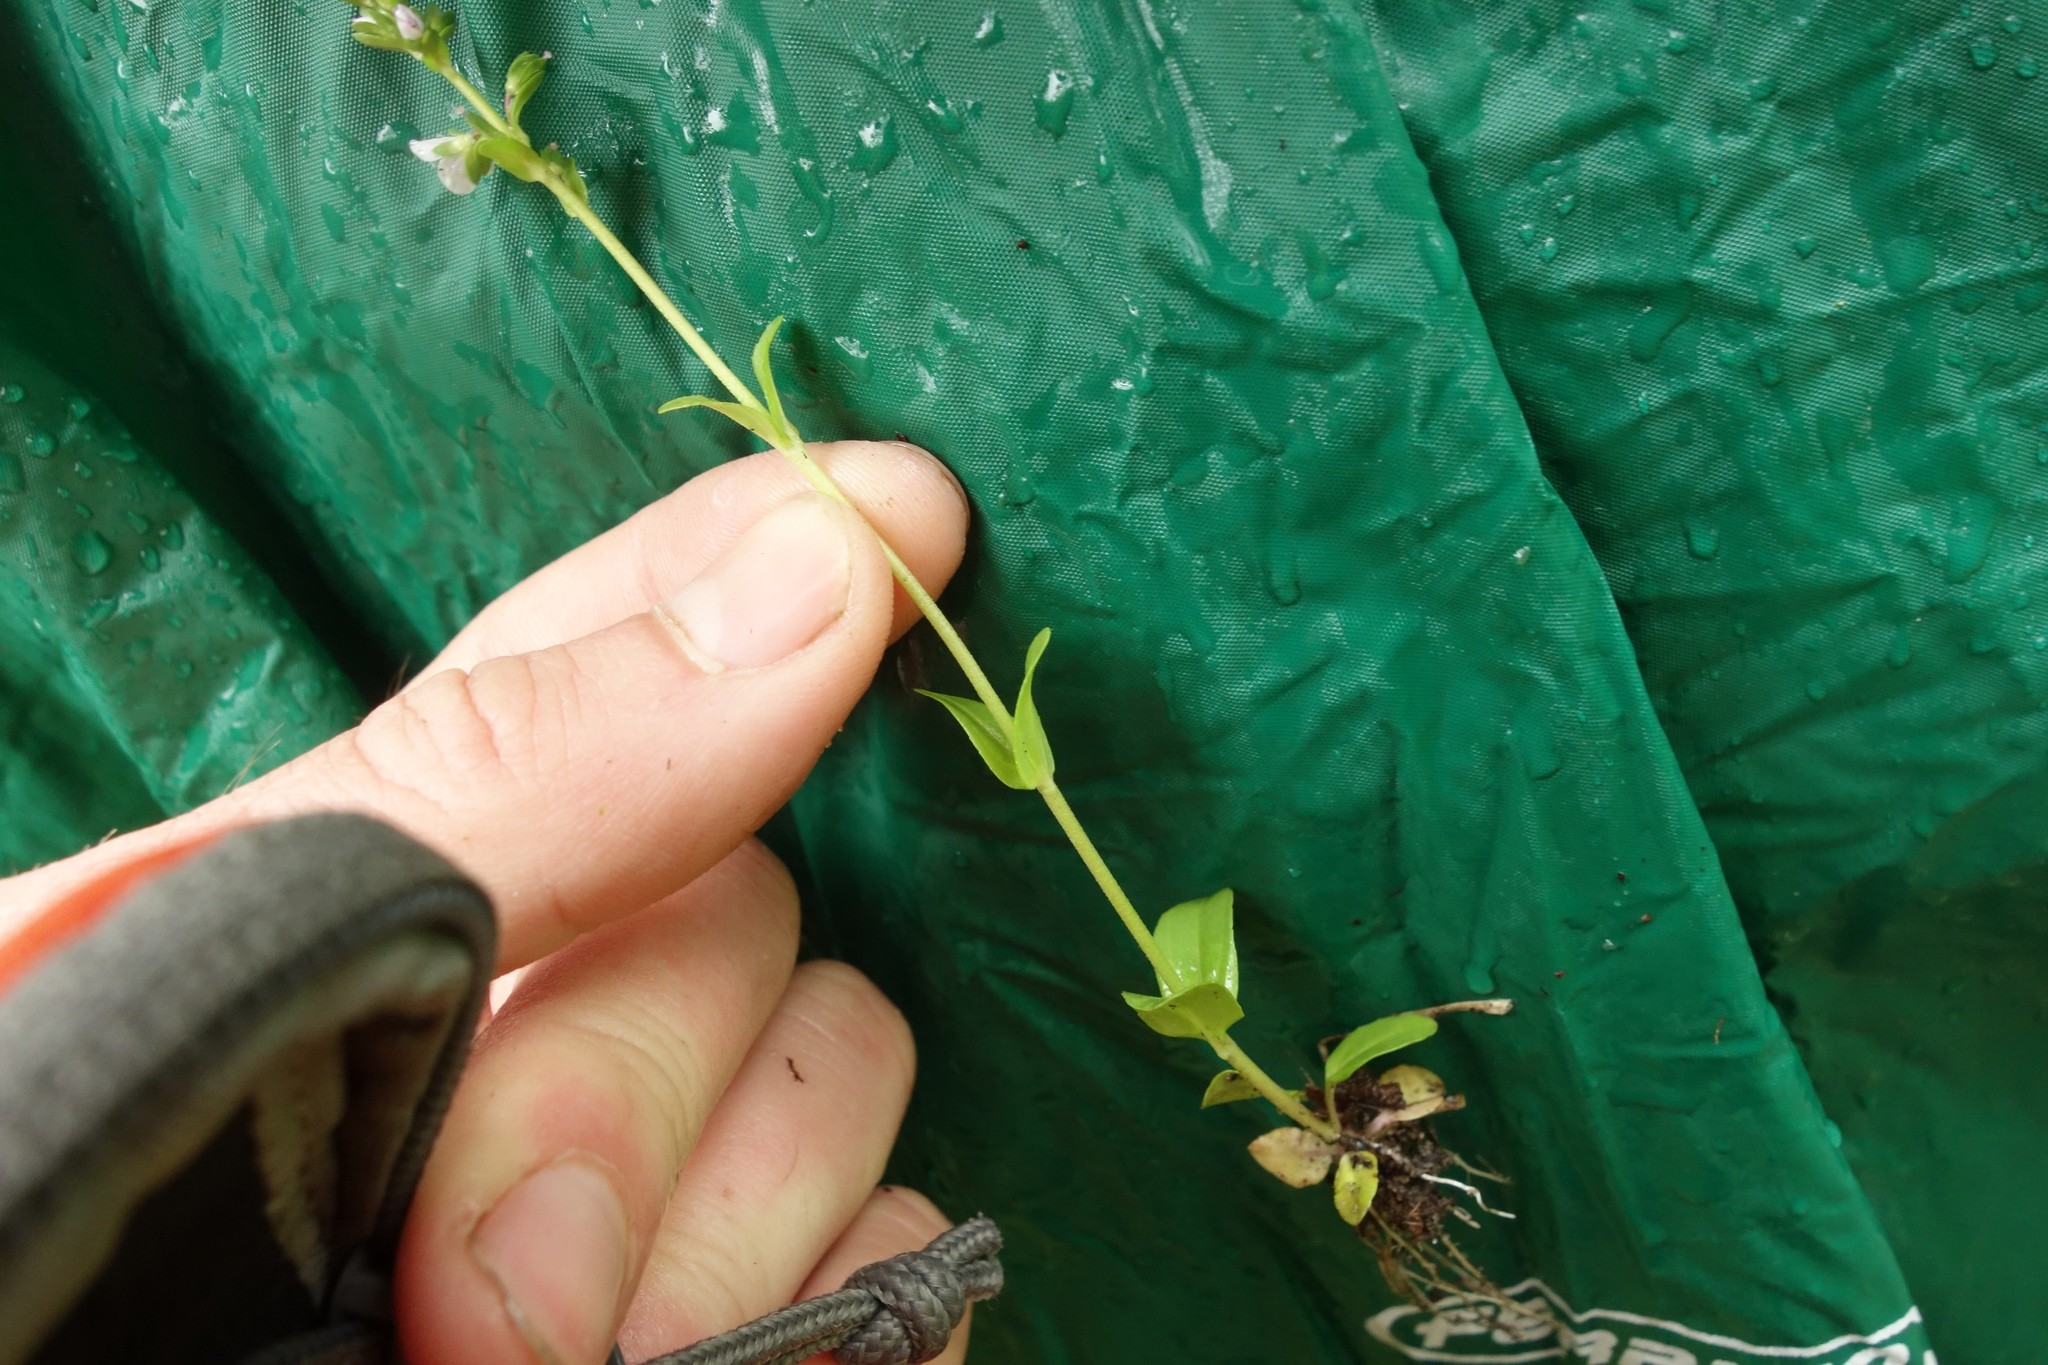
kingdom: Plantae
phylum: Tracheophyta
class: Magnoliopsida
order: Lamiales
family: Plantaginaceae
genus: Veronica
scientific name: Veronica serpyllifolia
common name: Thyme-leaved speedwell
